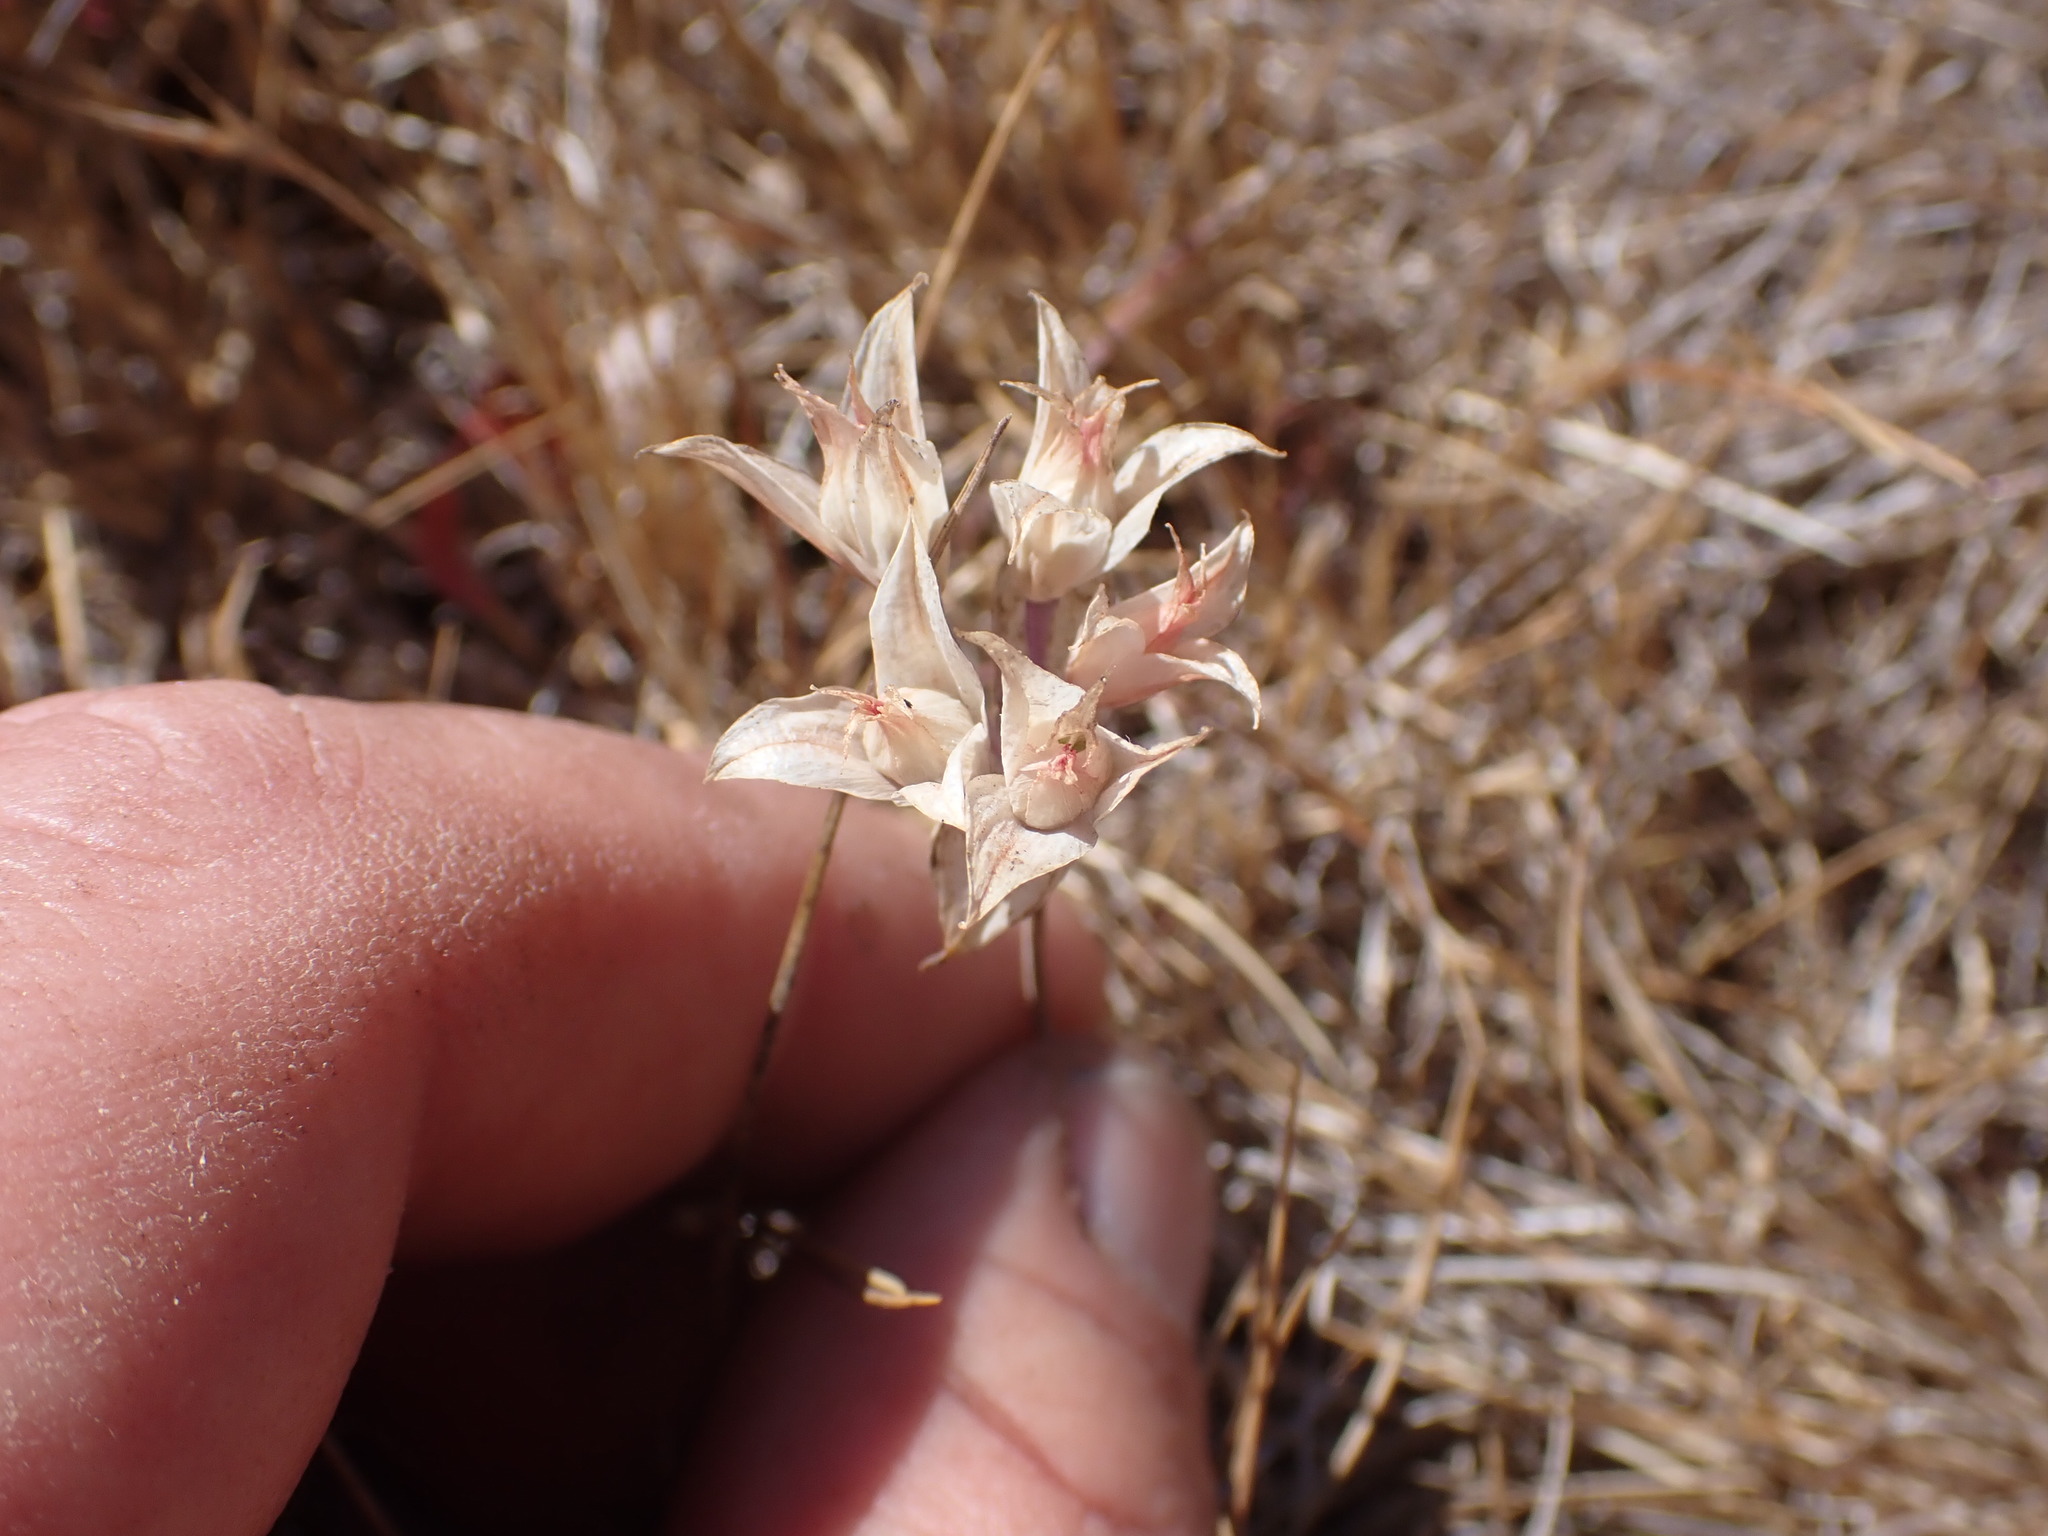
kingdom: Plantae
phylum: Tracheophyta
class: Liliopsida
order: Asparagales
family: Amaryllidaceae
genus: Allium
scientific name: Allium acuminatum
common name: Hooker's onion
